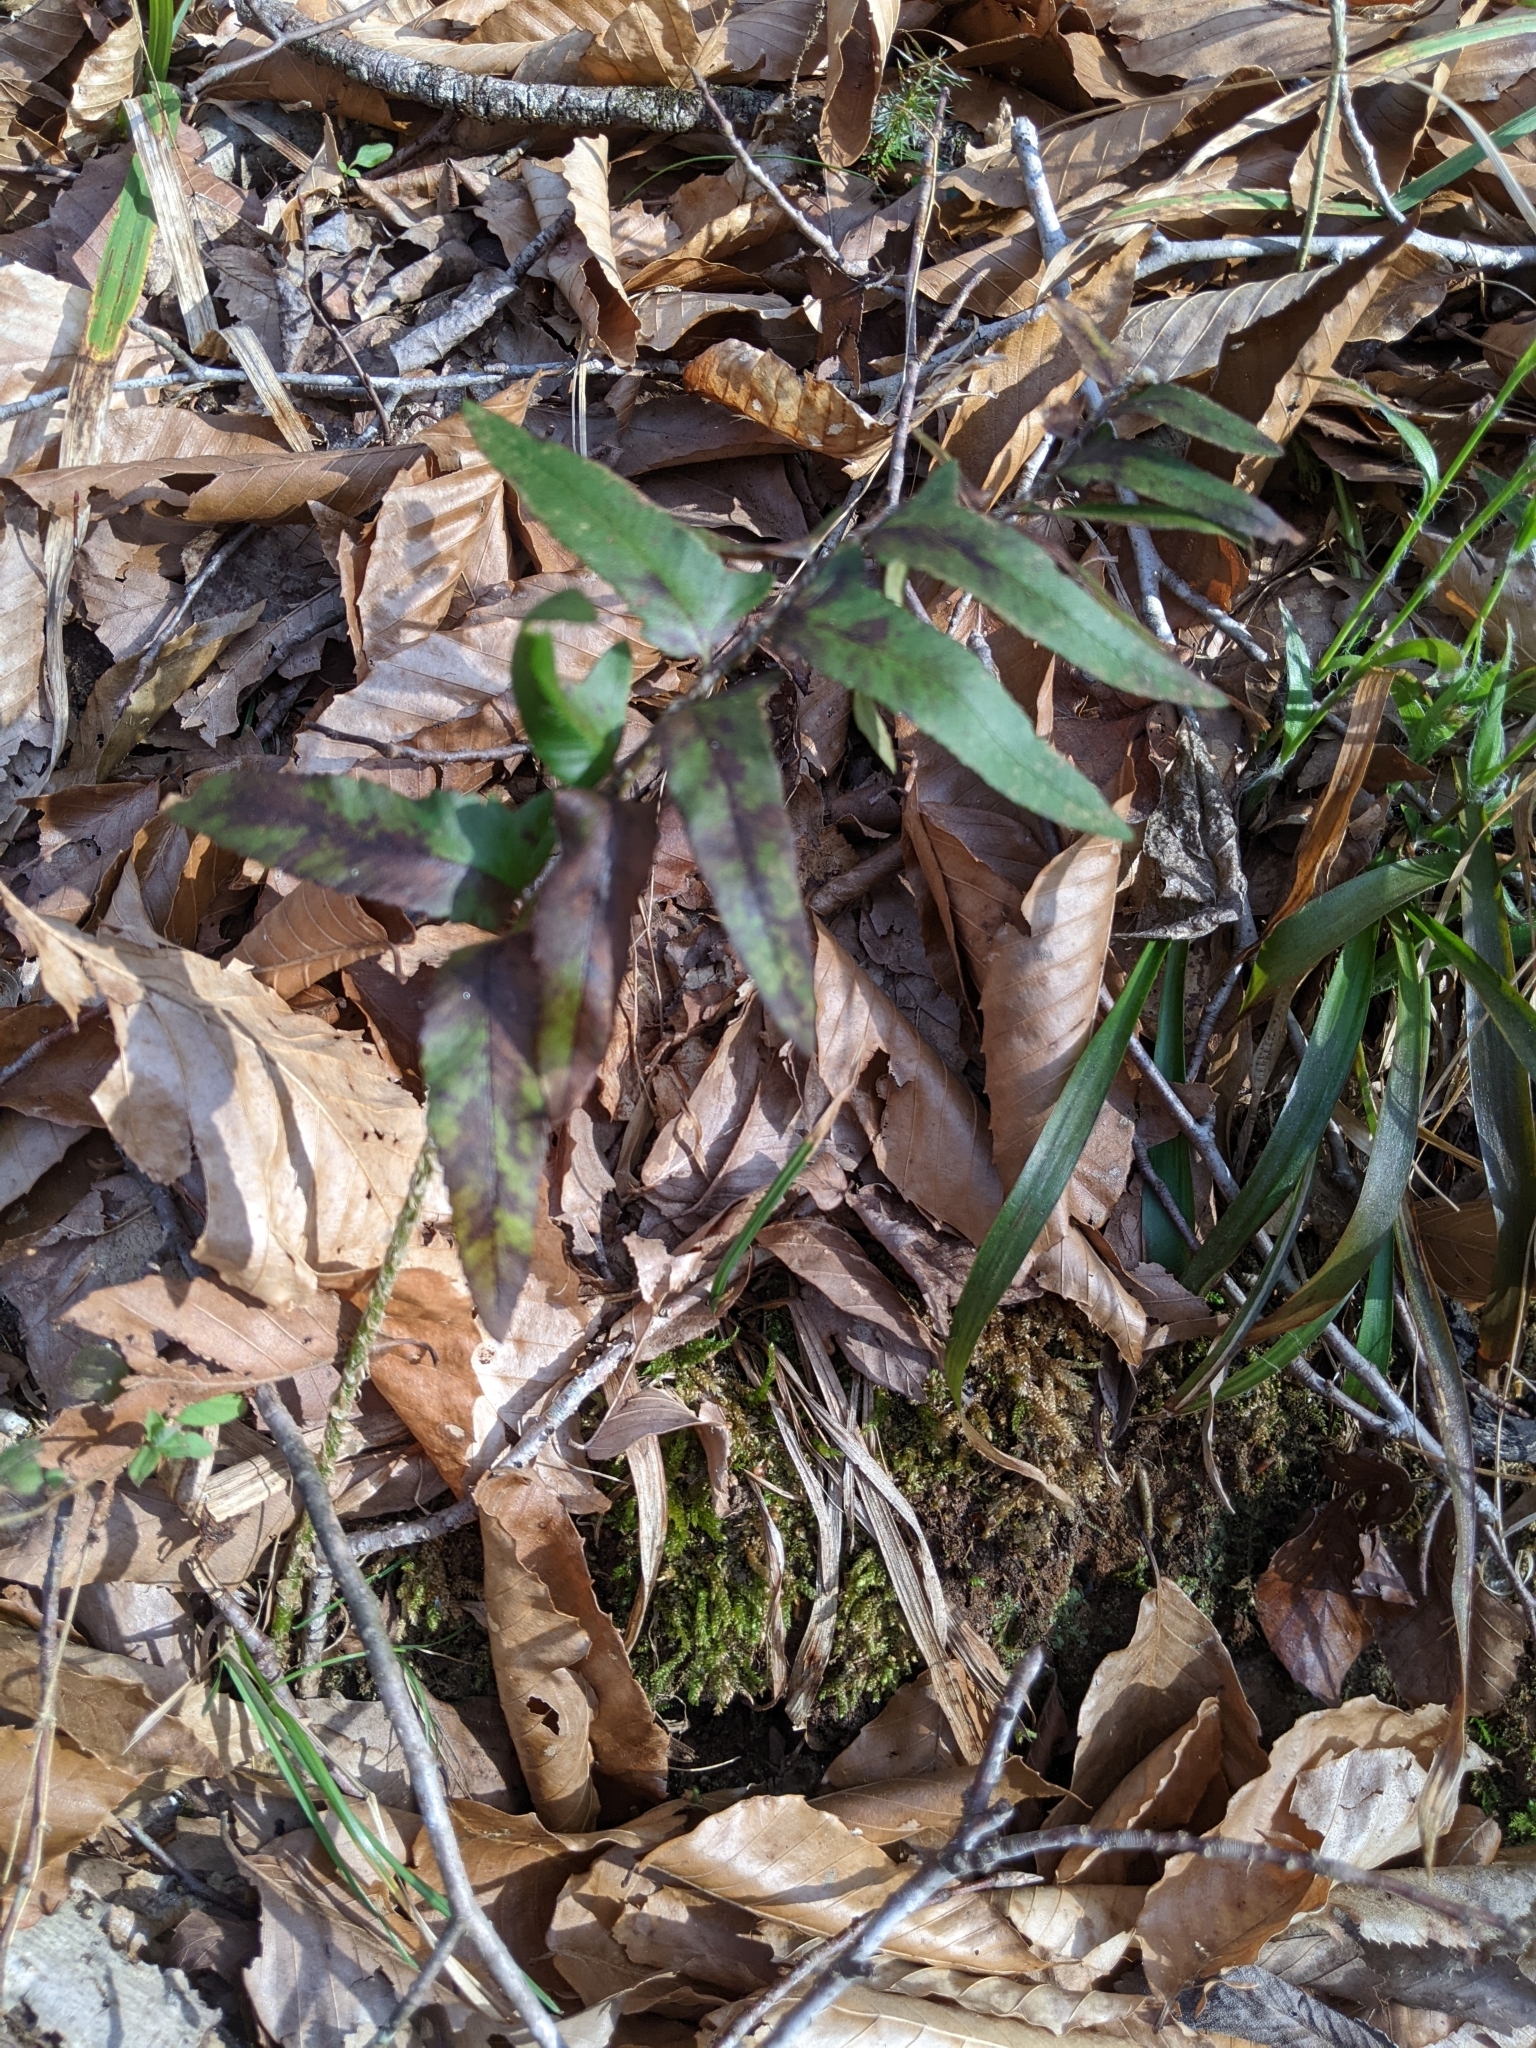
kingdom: Plantae
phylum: Tracheophyta
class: Polypodiopsida
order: Polypodiales
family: Dryopteridaceae
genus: Polystichum
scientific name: Polystichum acrostichoides
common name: Christmas fern
